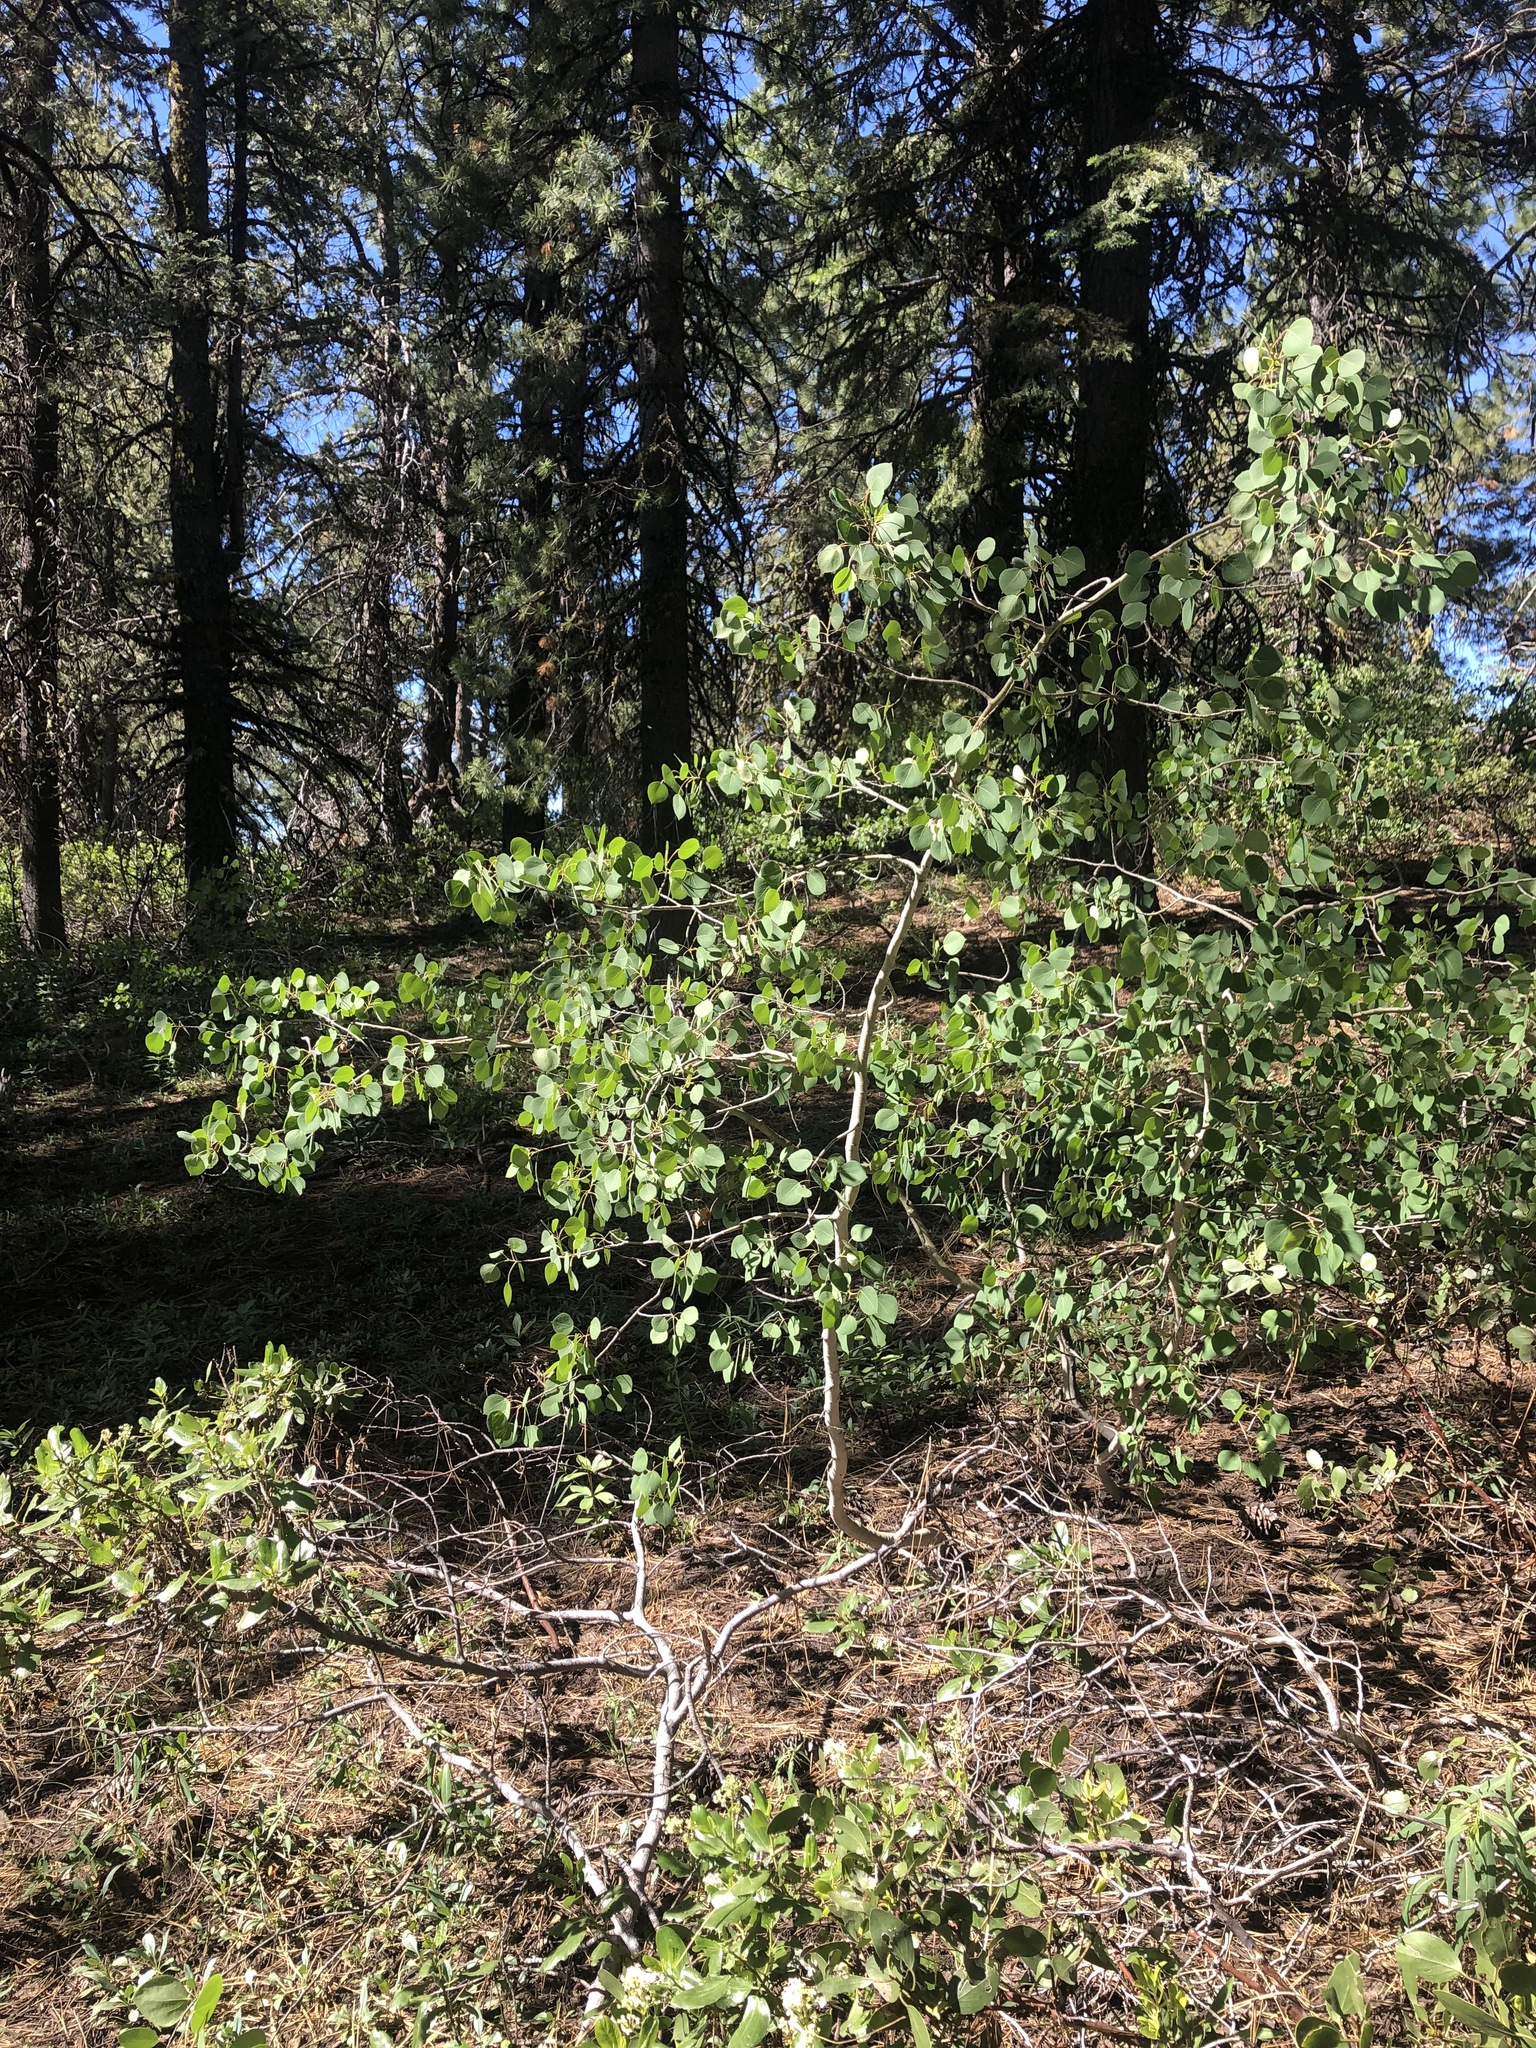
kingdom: Plantae
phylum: Tracheophyta
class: Magnoliopsida
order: Malpighiales
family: Salicaceae
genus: Populus
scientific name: Populus tremuloides
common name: Quaking aspen
